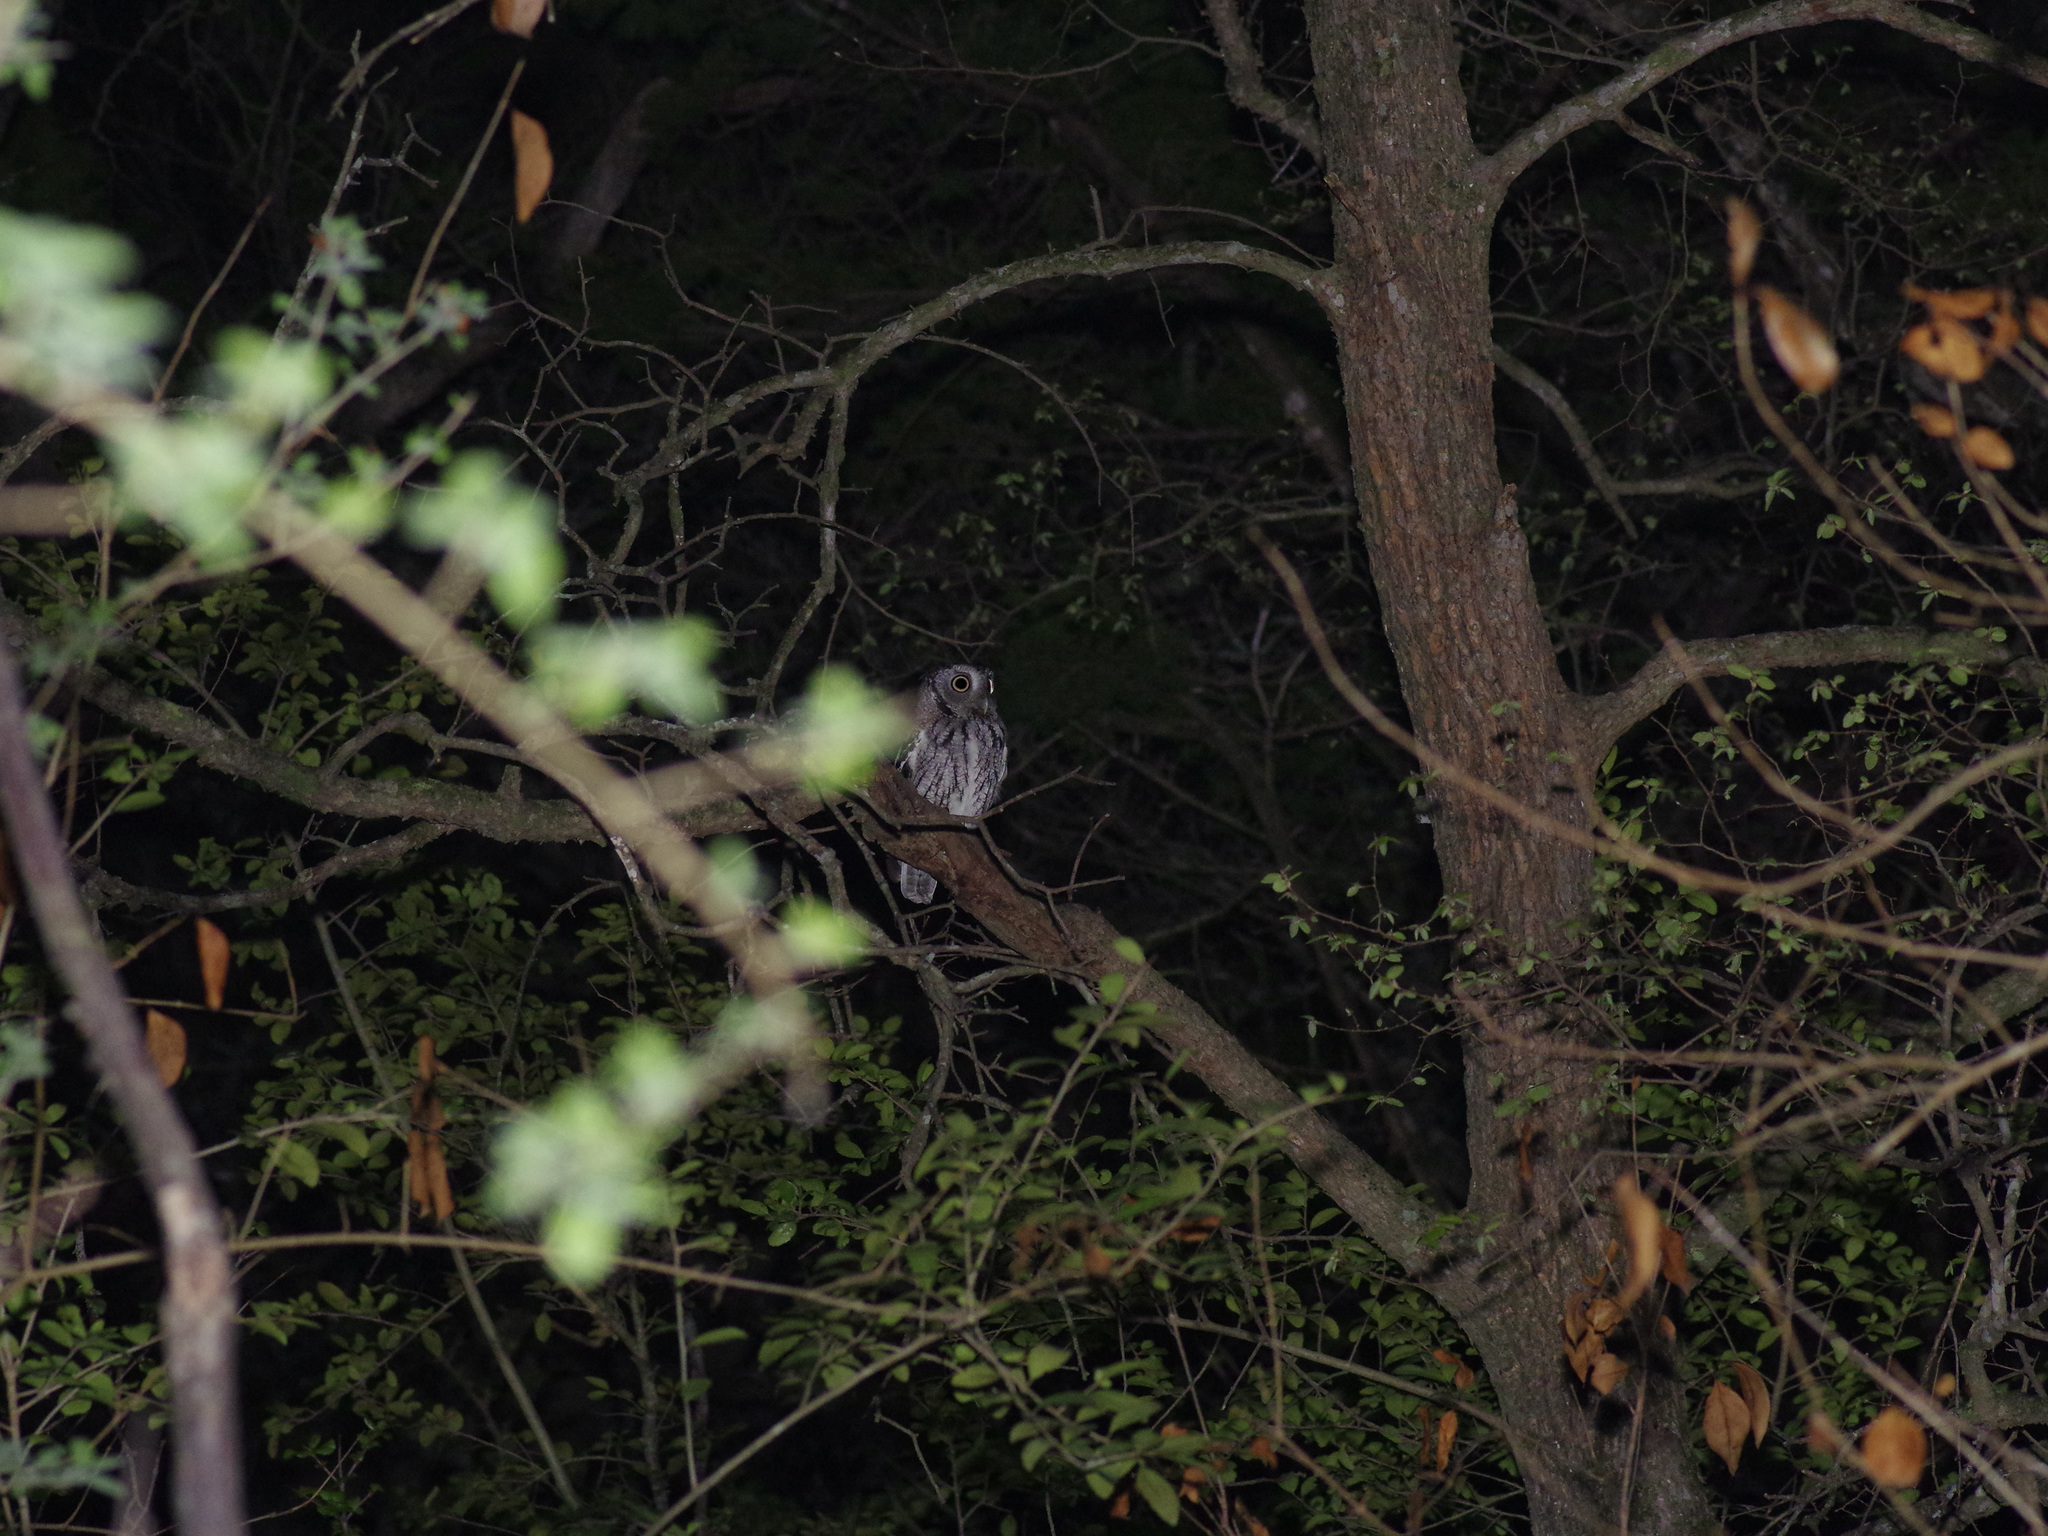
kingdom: Animalia
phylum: Chordata
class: Aves
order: Strigiformes
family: Strigidae
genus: Megascops
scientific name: Megascops asio
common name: Eastern screech-owl
